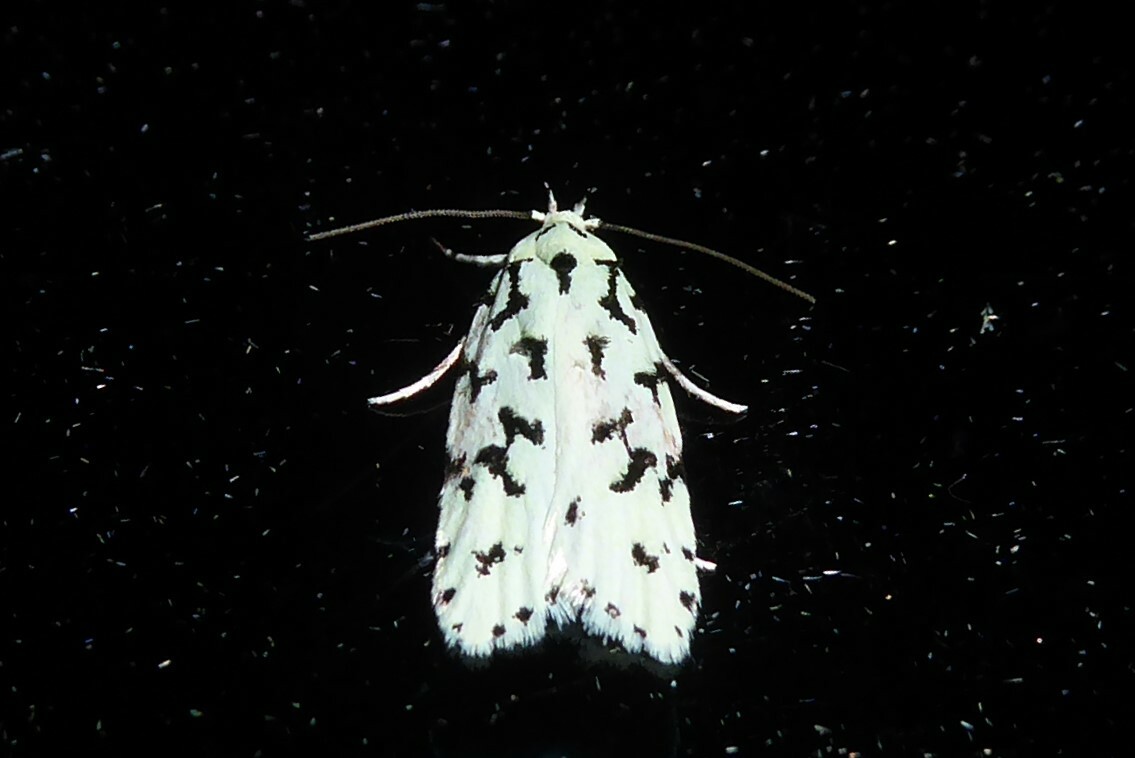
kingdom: Animalia
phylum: Arthropoda
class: Insecta
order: Lepidoptera
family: Oecophoridae
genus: Izatha
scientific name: Izatha huttoni
